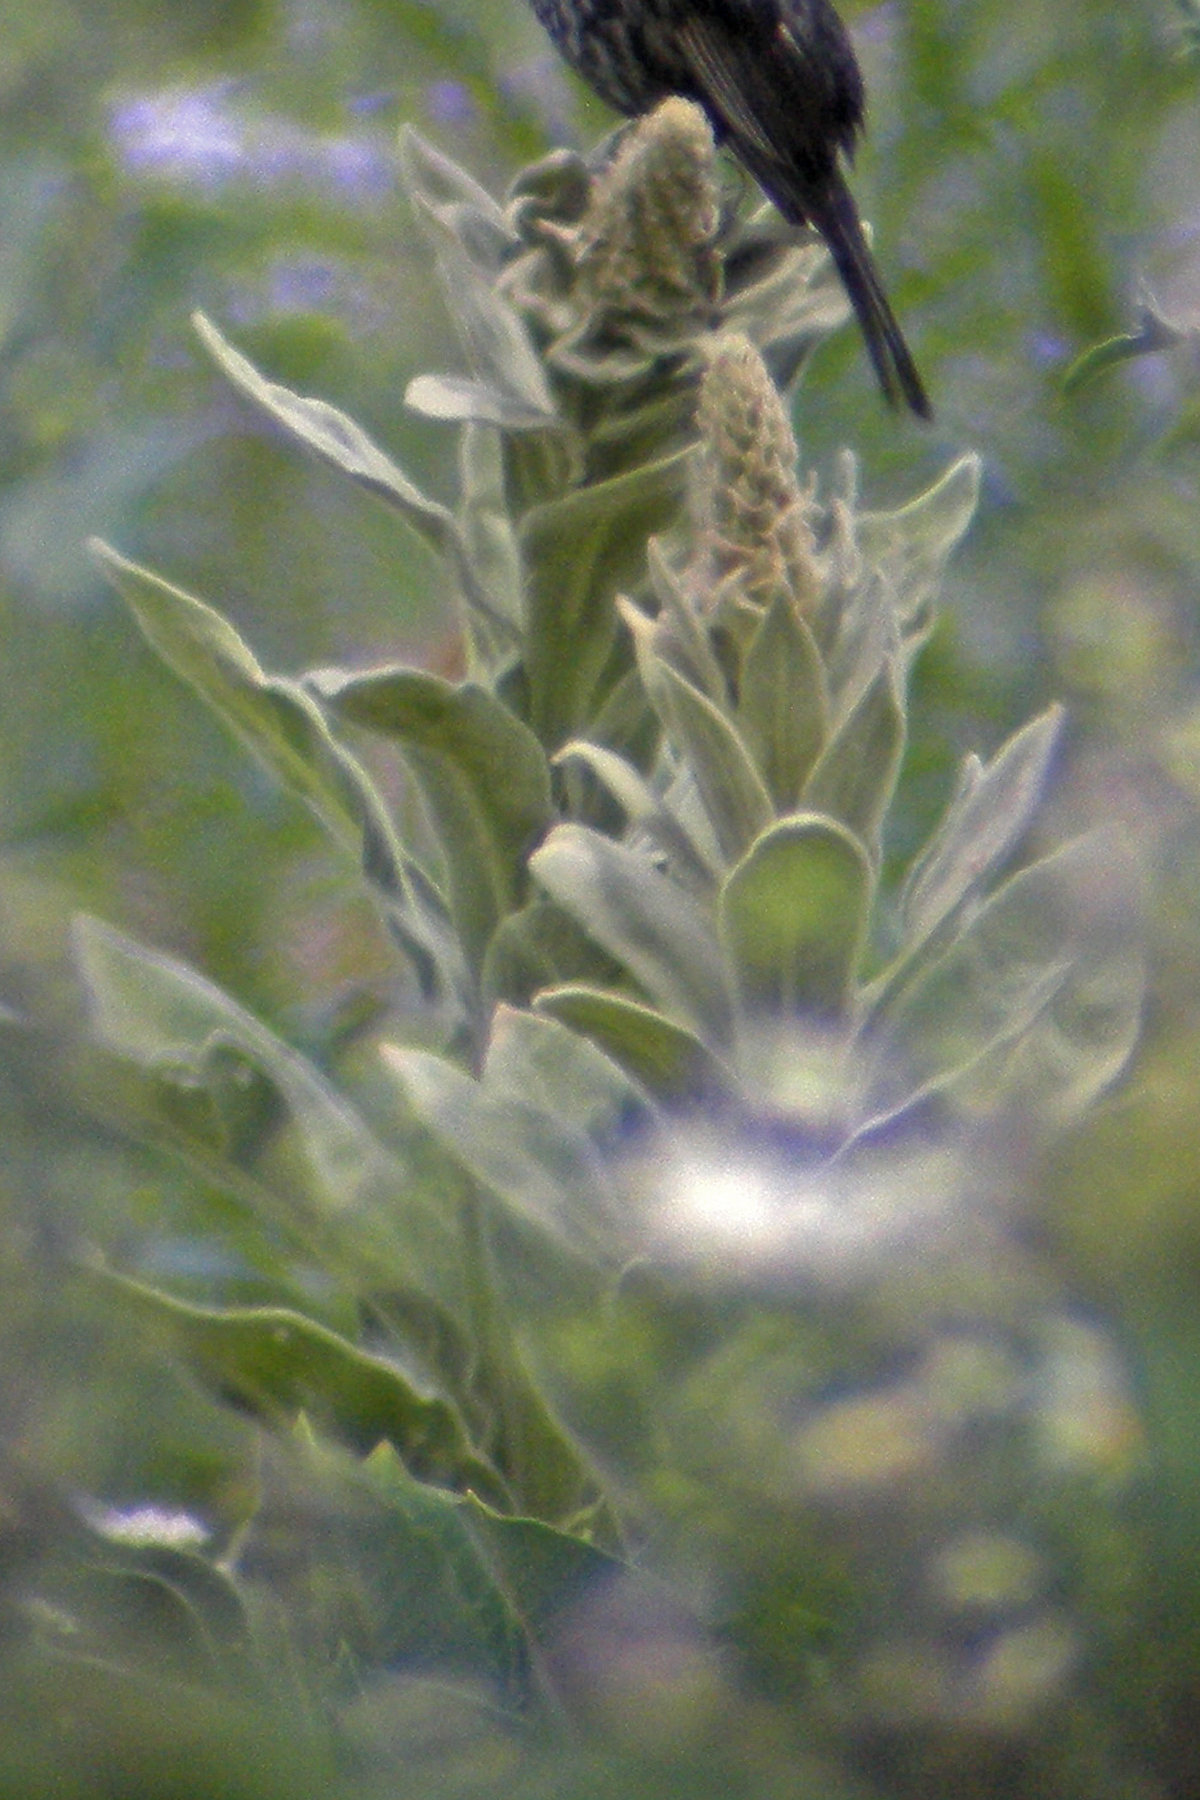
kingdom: Plantae
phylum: Tracheophyta
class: Magnoliopsida
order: Lamiales
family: Scrophulariaceae
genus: Verbascum
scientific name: Verbascum thapsus
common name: Common mullein
